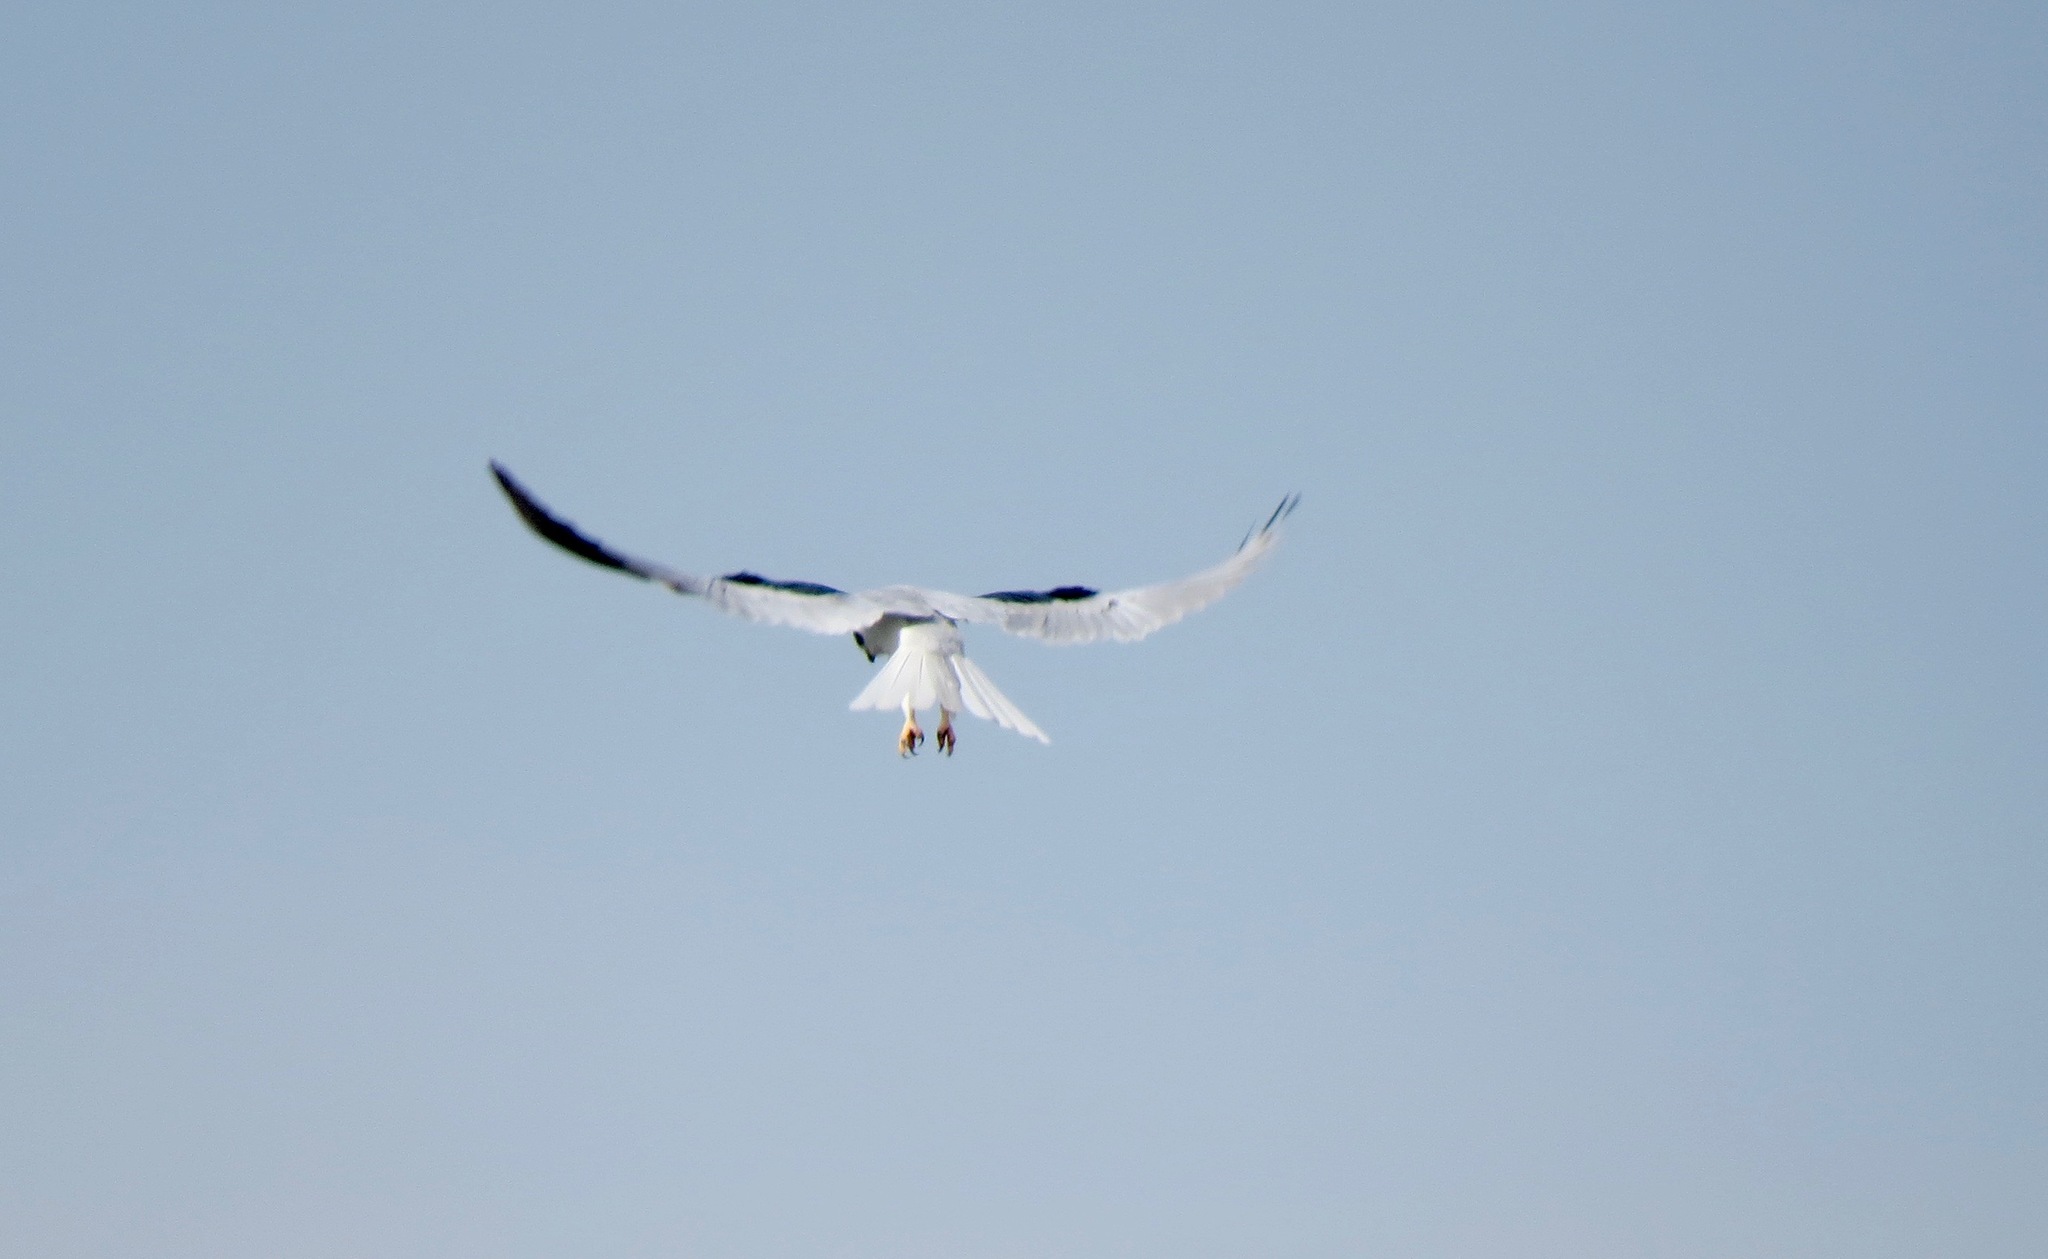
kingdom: Animalia
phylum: Chordata
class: Aves
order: Accipitriformes
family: Accipitridae
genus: Elanus
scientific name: Elanus leucurus
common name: White-tailed kite
